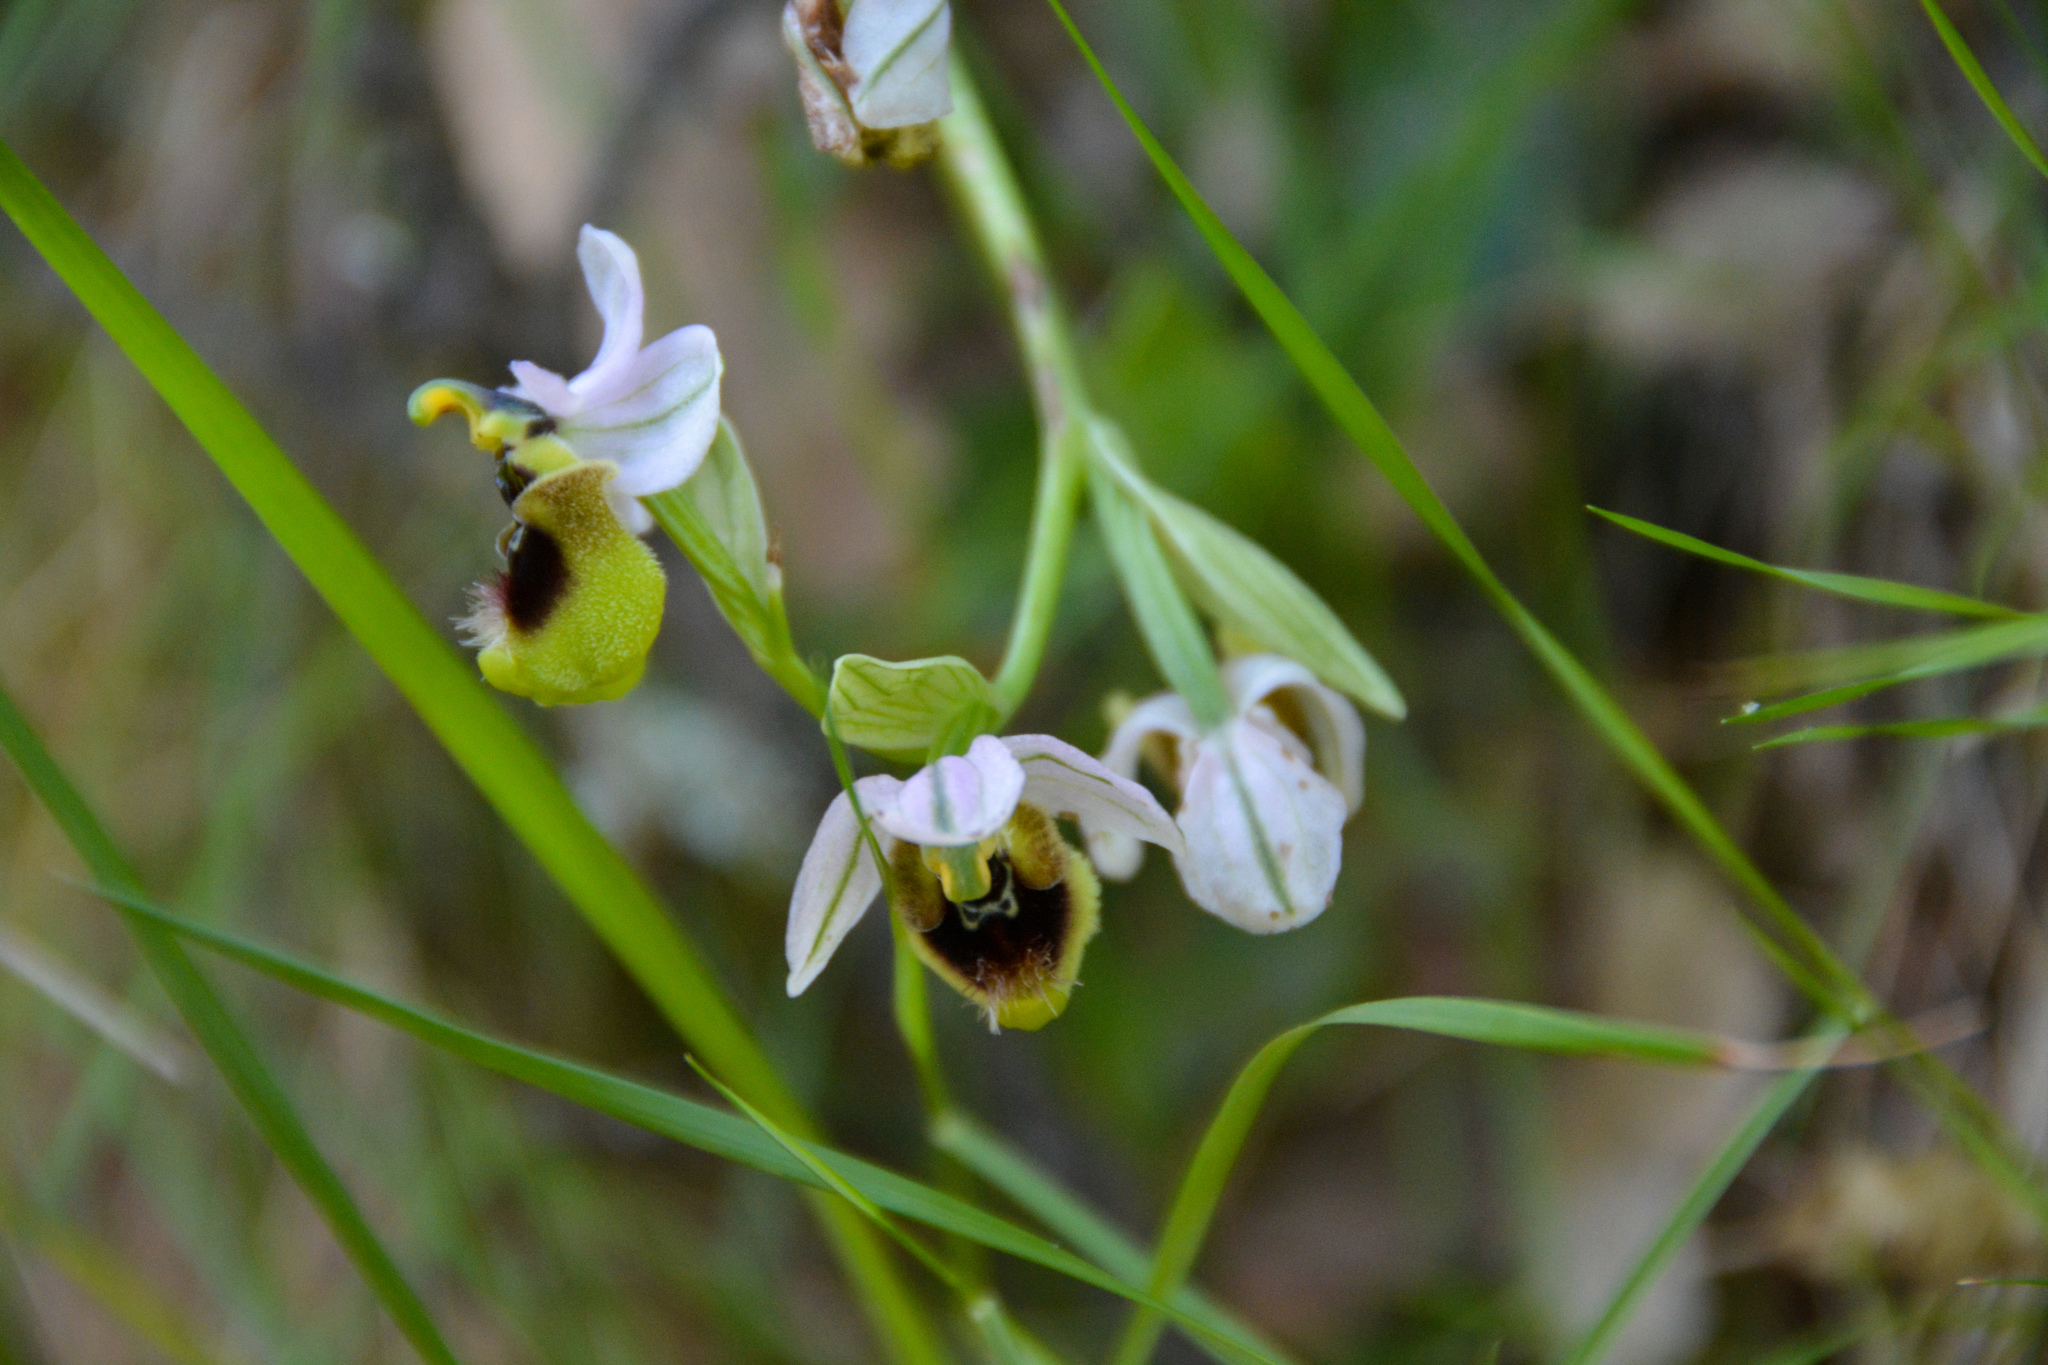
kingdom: Plantae
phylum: Tracheophyta
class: Liliopsida
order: Asparagales
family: Orchidaceae
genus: Ophrys
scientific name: Ophrys tenthredinifera
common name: Sawfly orchid
